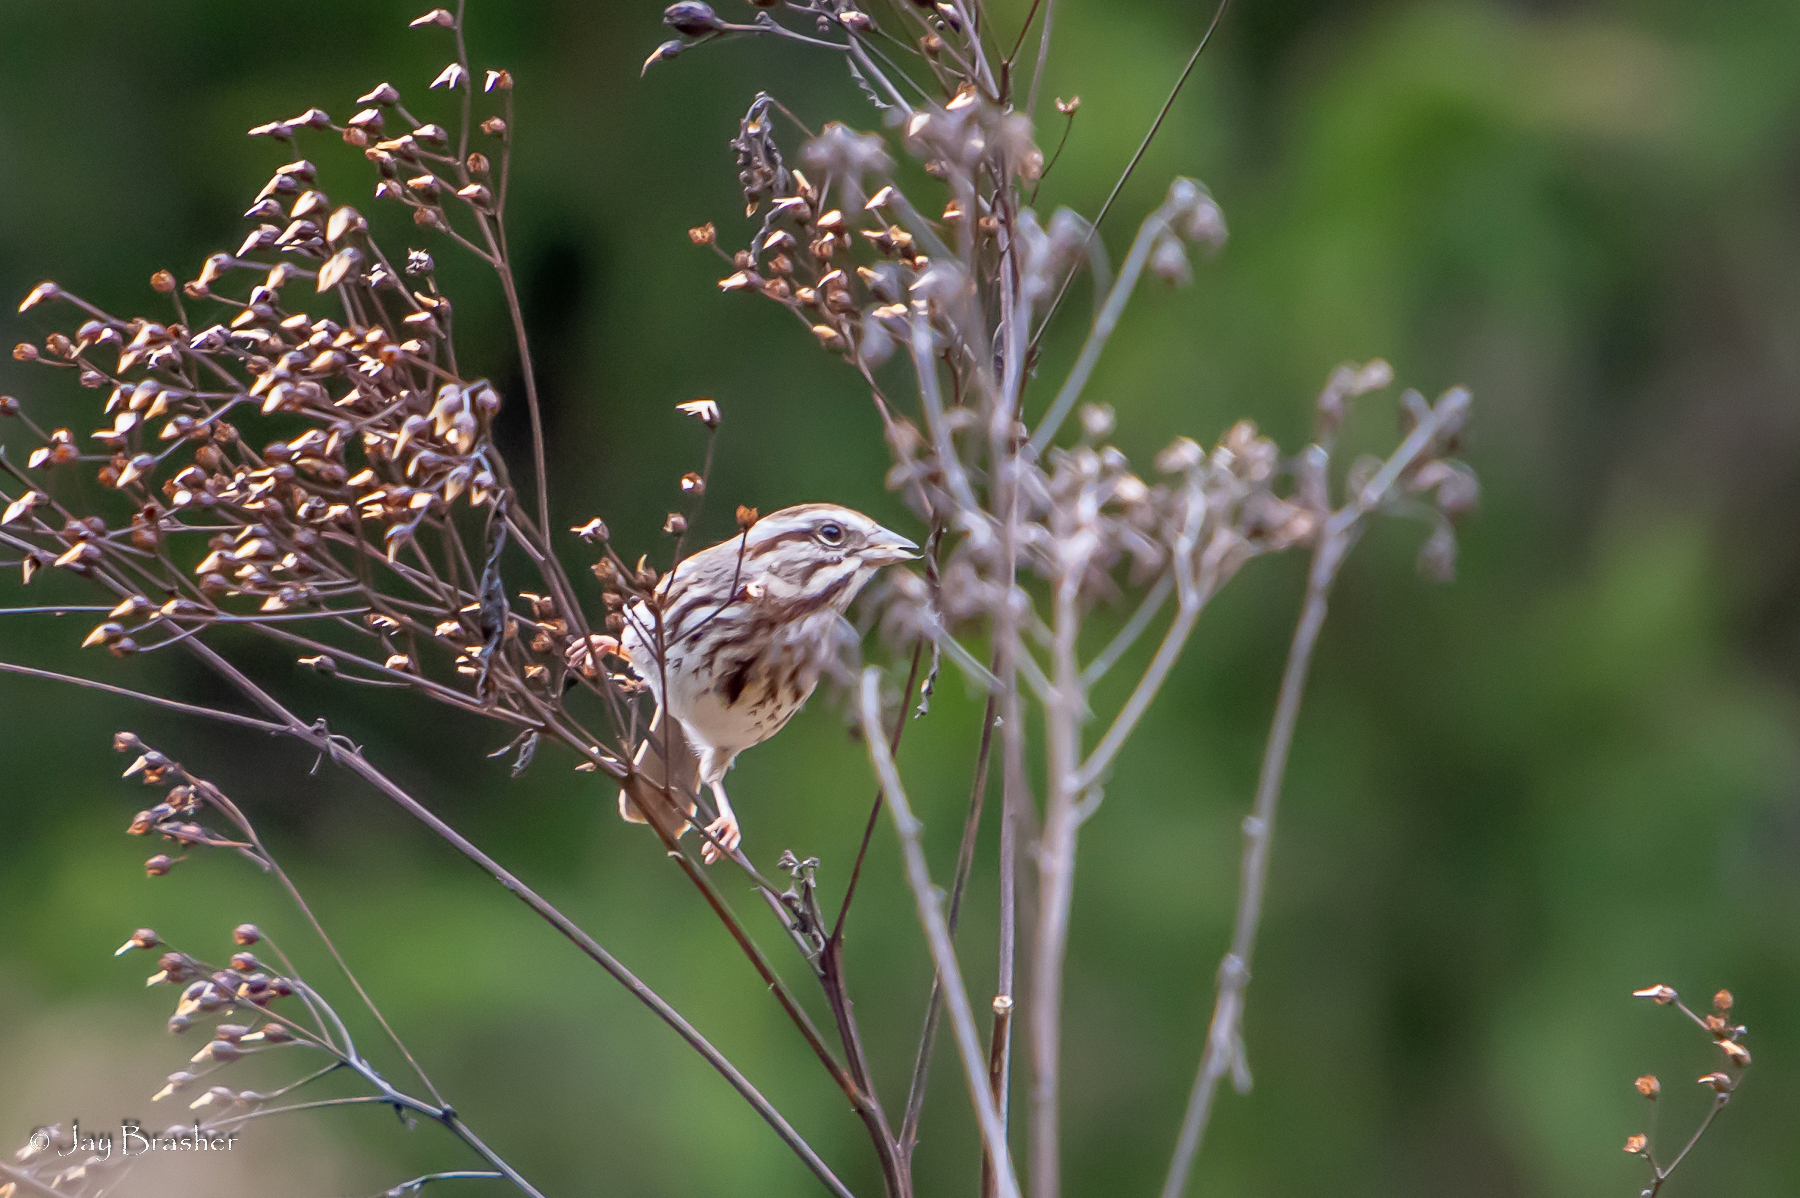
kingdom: Animalia
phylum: Chordata
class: Aves
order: Passeriformes
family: Passerellidae
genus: Melospiza
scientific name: Melospiza melodia
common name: Song sparrow
